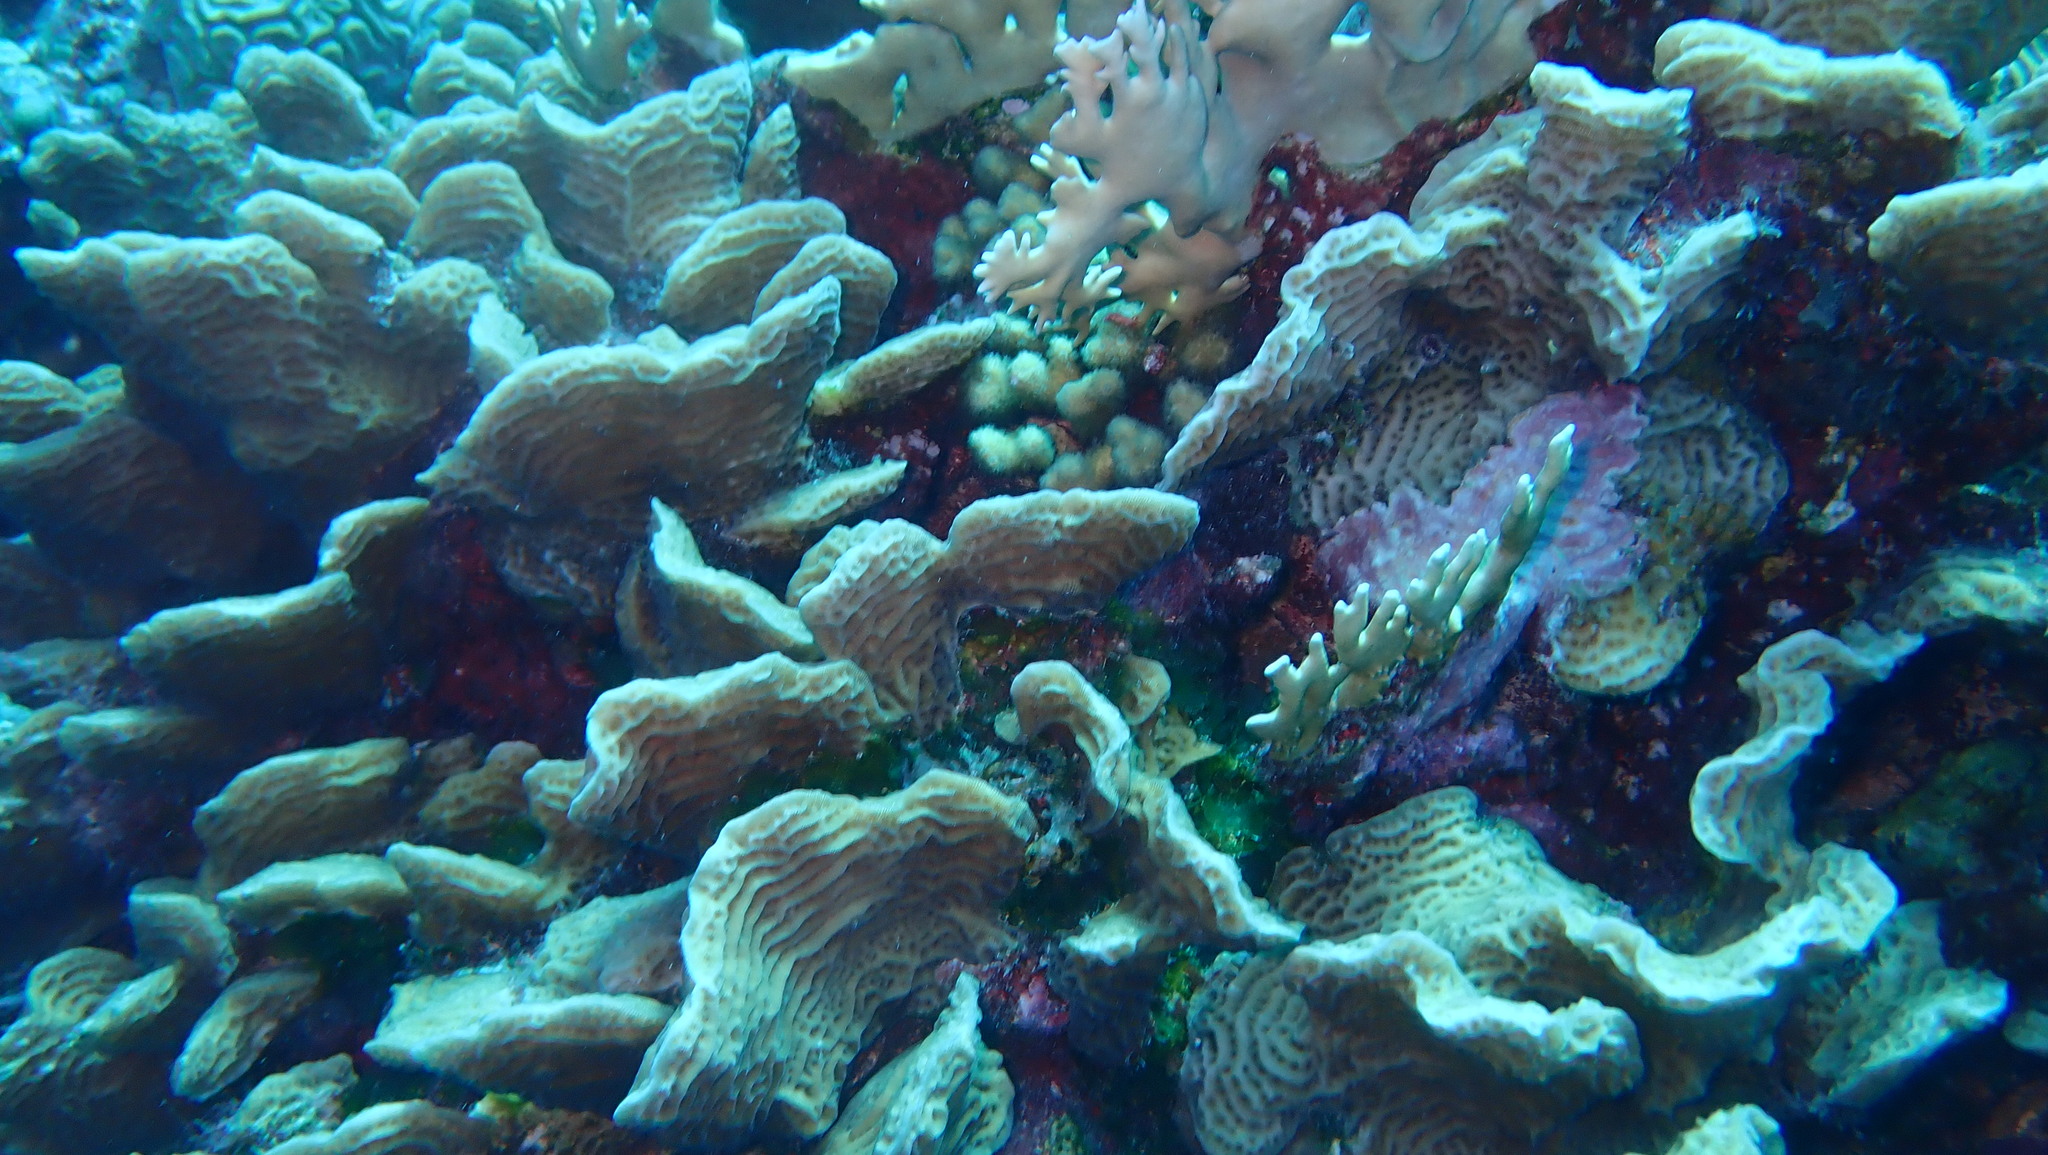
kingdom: Animalia
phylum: Cnidaria
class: Anthozoa
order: Scleractinia
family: Agariciidae
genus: Agaricia
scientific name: Agaricia agaricites
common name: Lettuce coral
